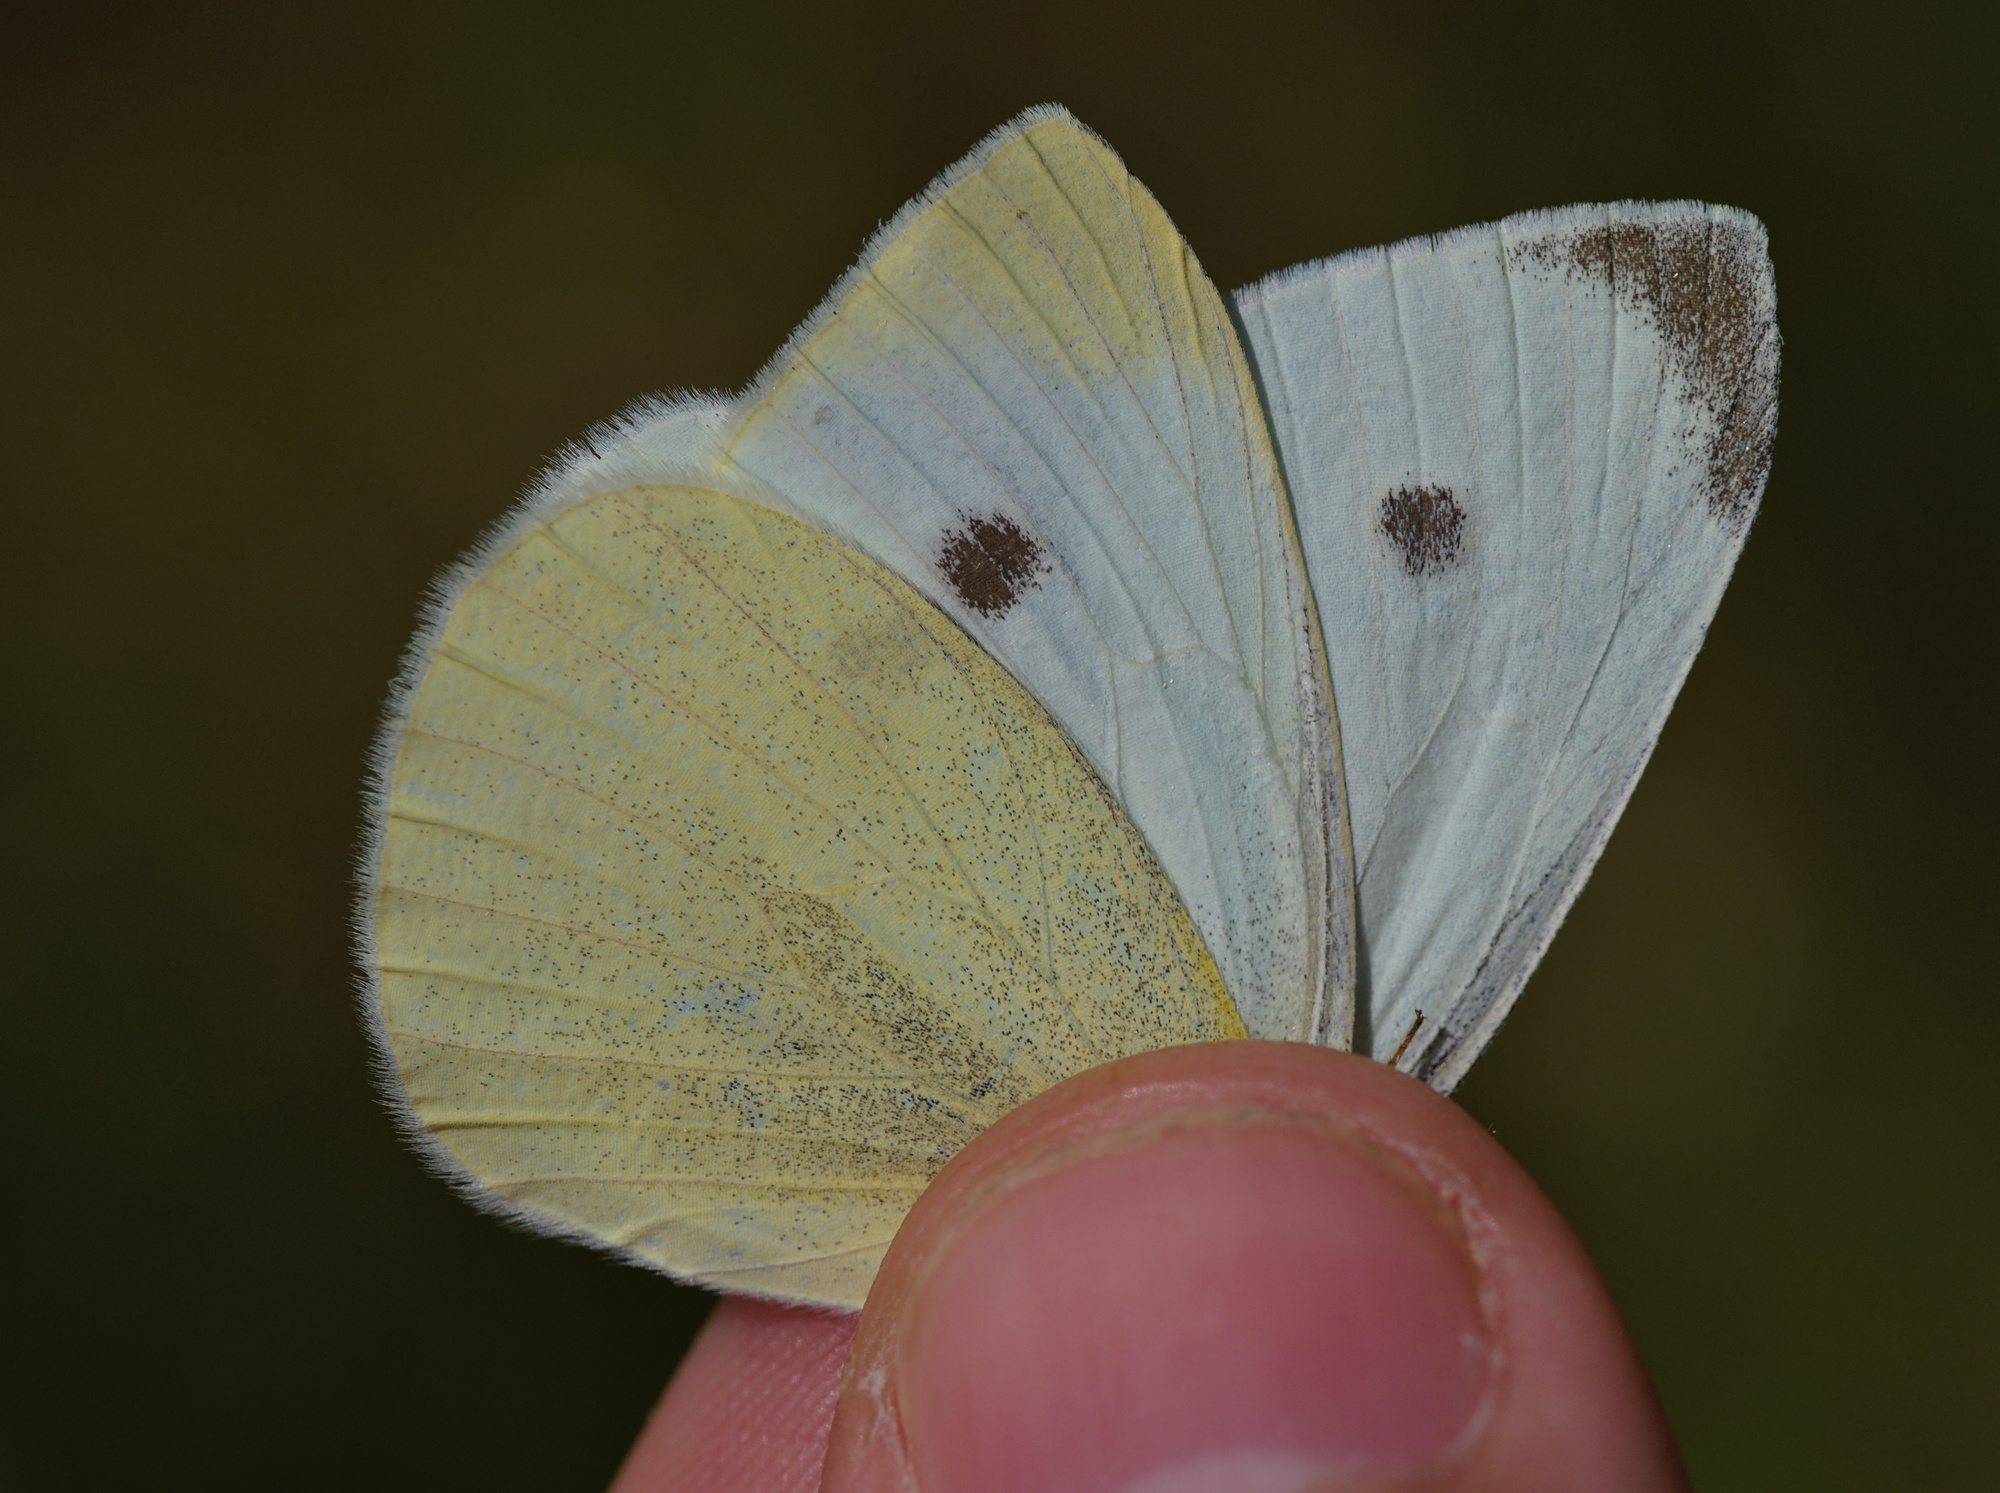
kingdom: Animalia
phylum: Arthropoda
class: Insecta
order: Lepidoptera
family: Pieridae
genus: Pieris
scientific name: Pieris rapae
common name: Small white
